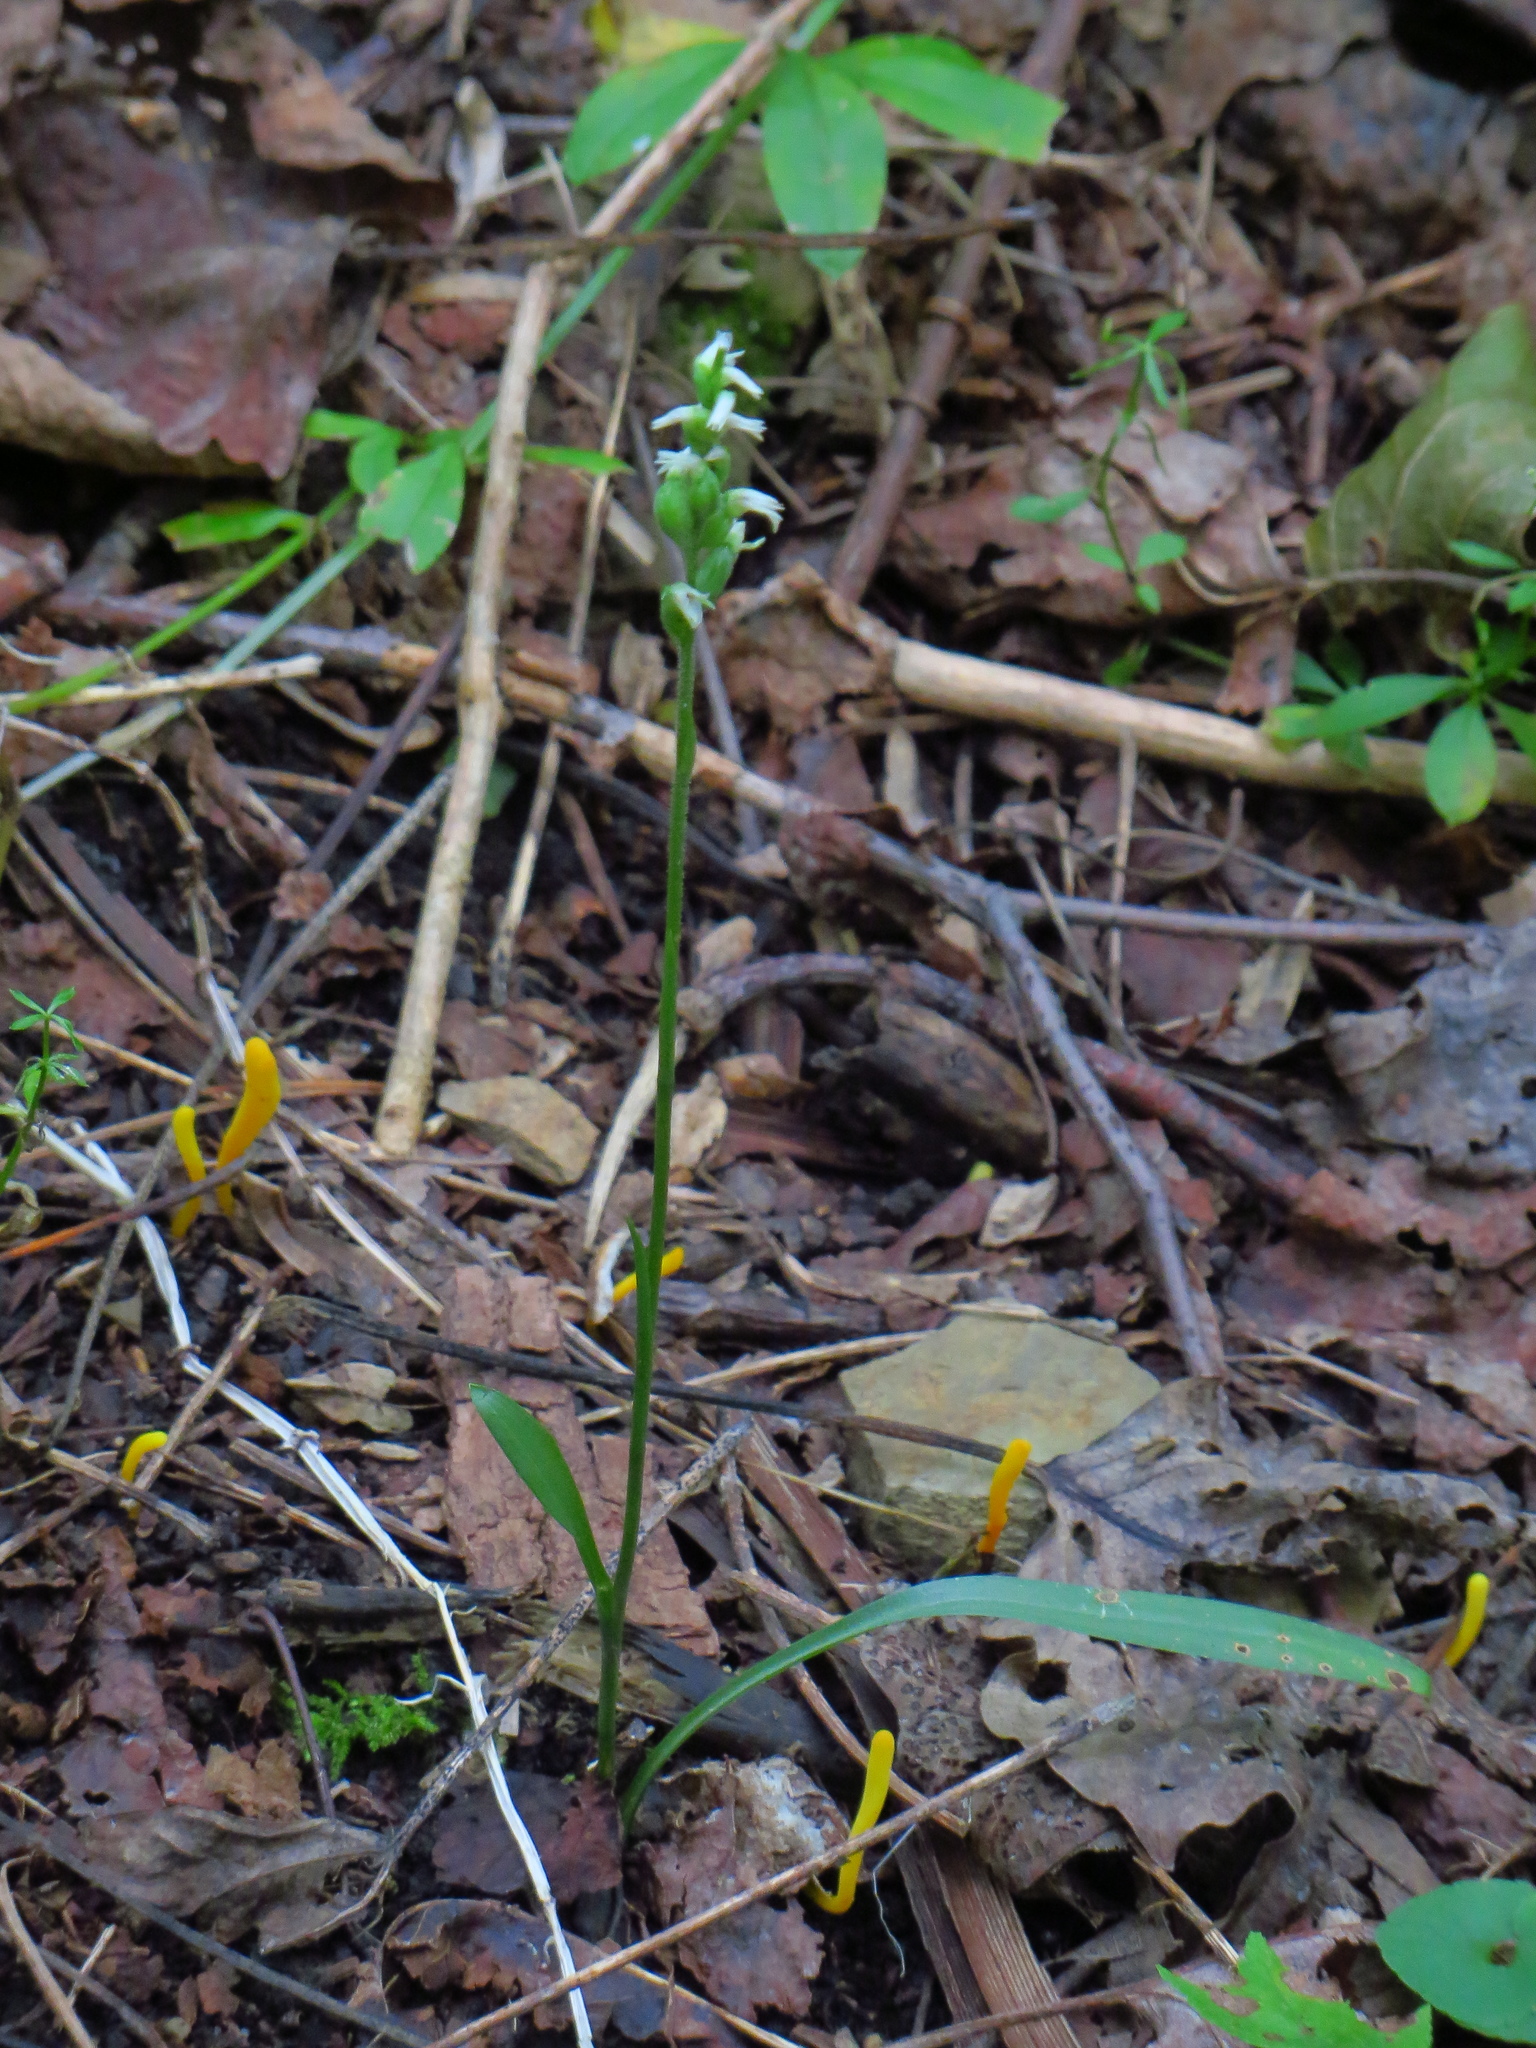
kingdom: Plantae
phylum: Tracheophyta
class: Liliopsida
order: Asparagales
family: Orchidaceae
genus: Spiranthes
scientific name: Spiranthes ovalis
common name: October ladies'-tresses
